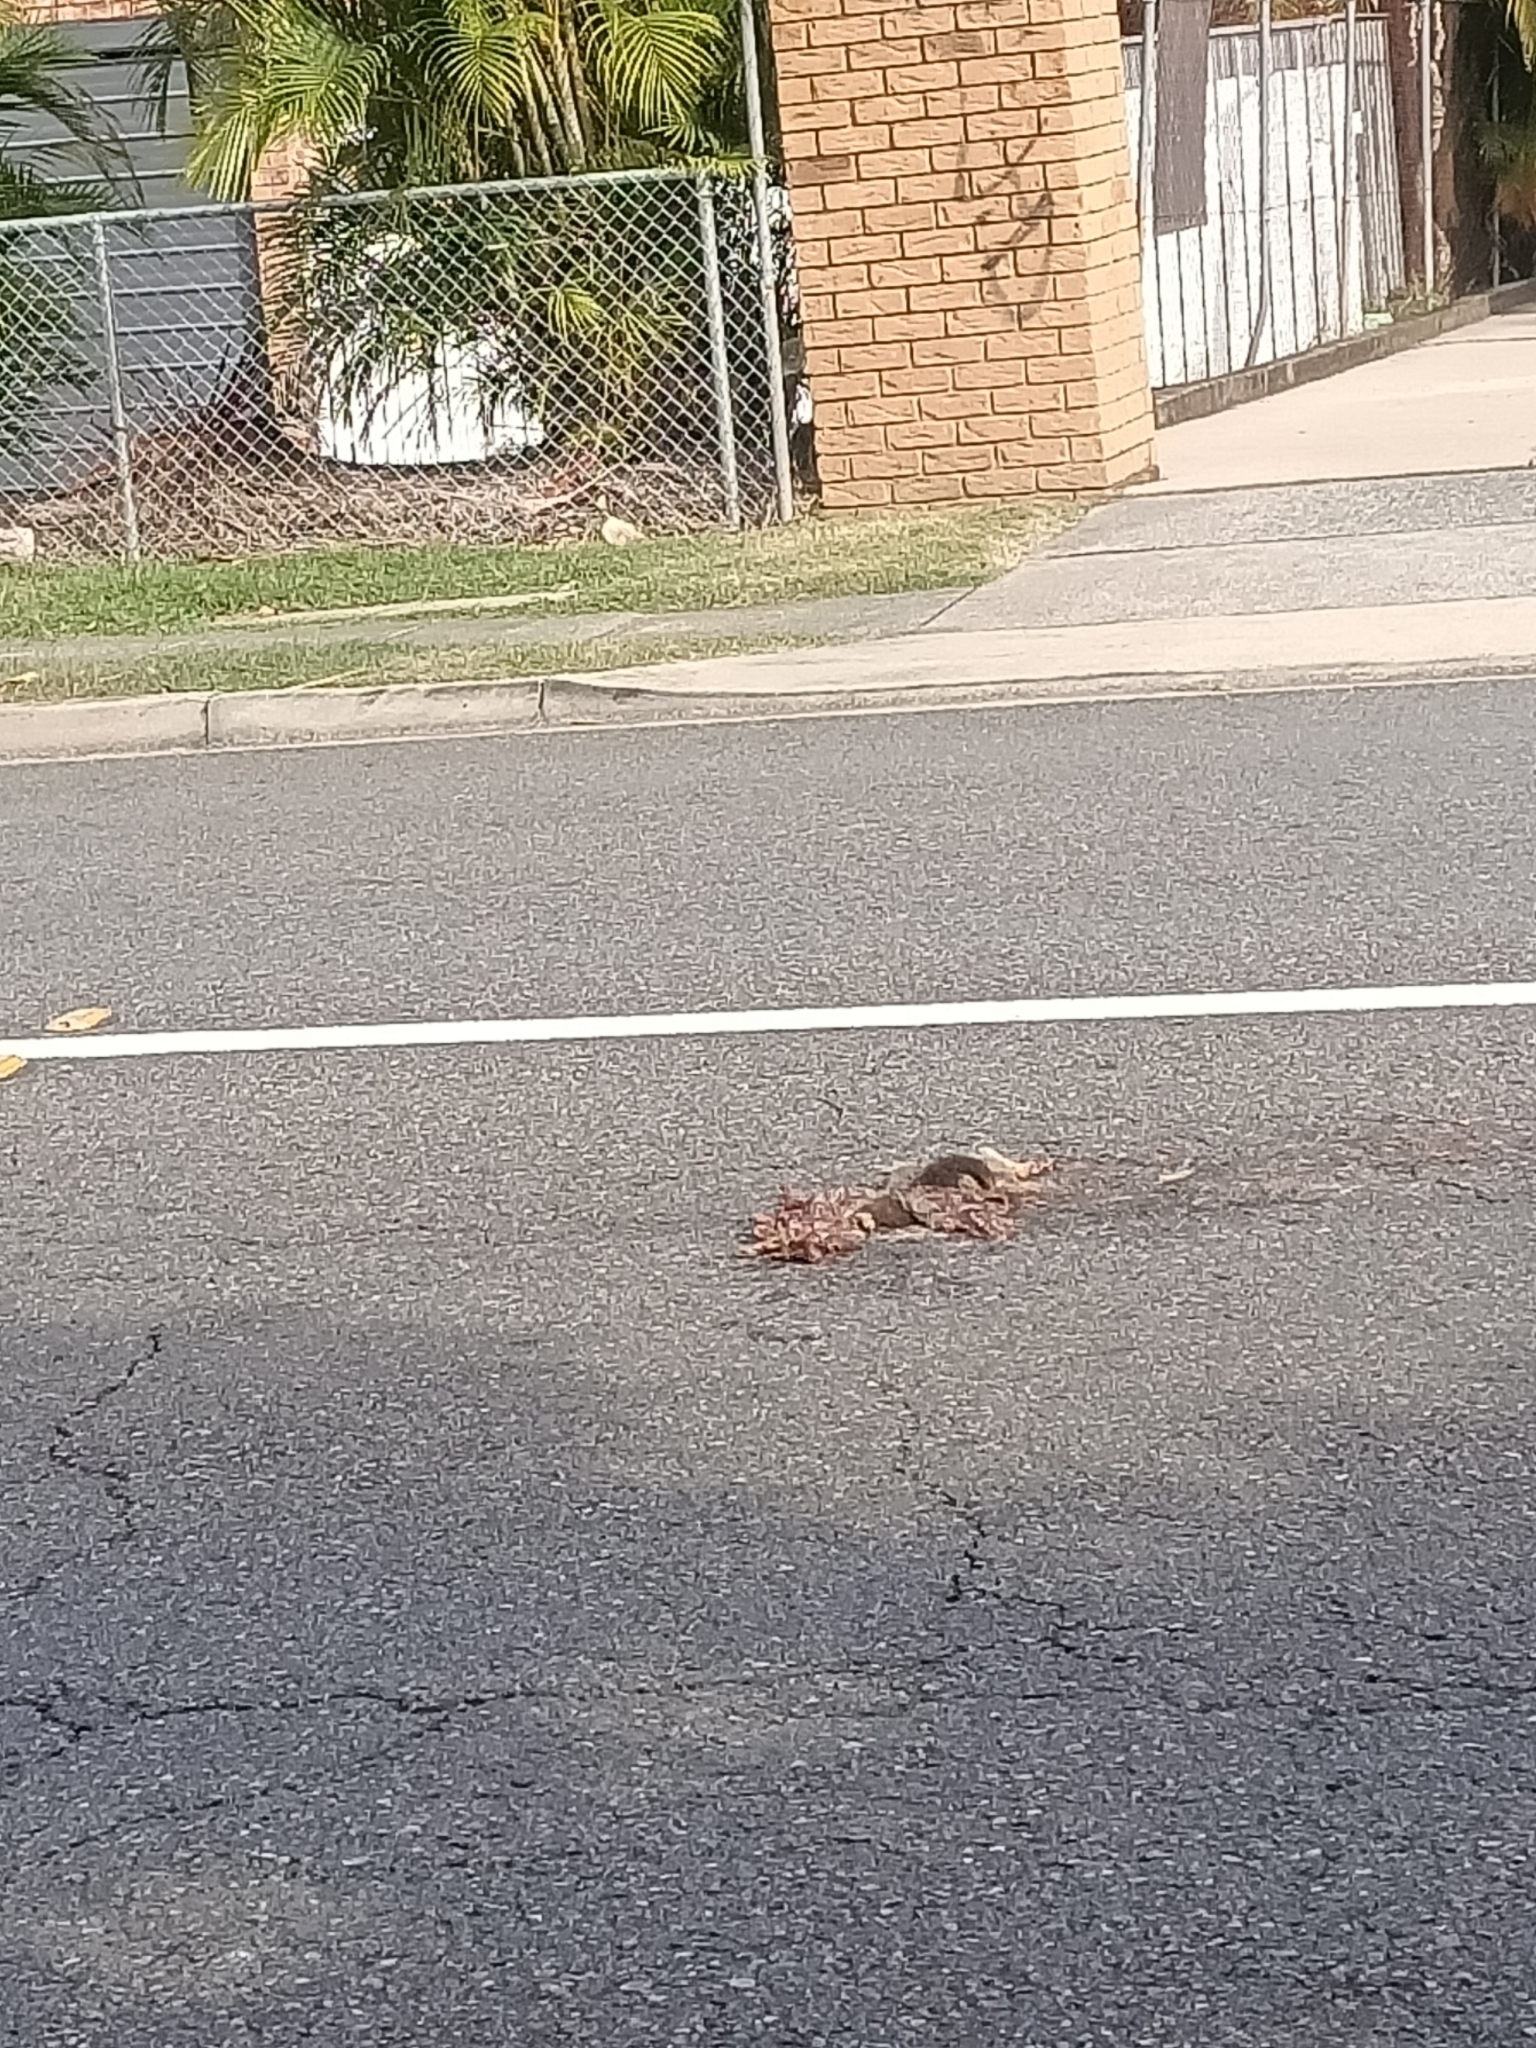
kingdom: Animalia
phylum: Chordata
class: Mammalia
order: Diprotodontia
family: Phalangeridae
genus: Trichosurus
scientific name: Trichosurus vulpecula
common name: Common brushtail
